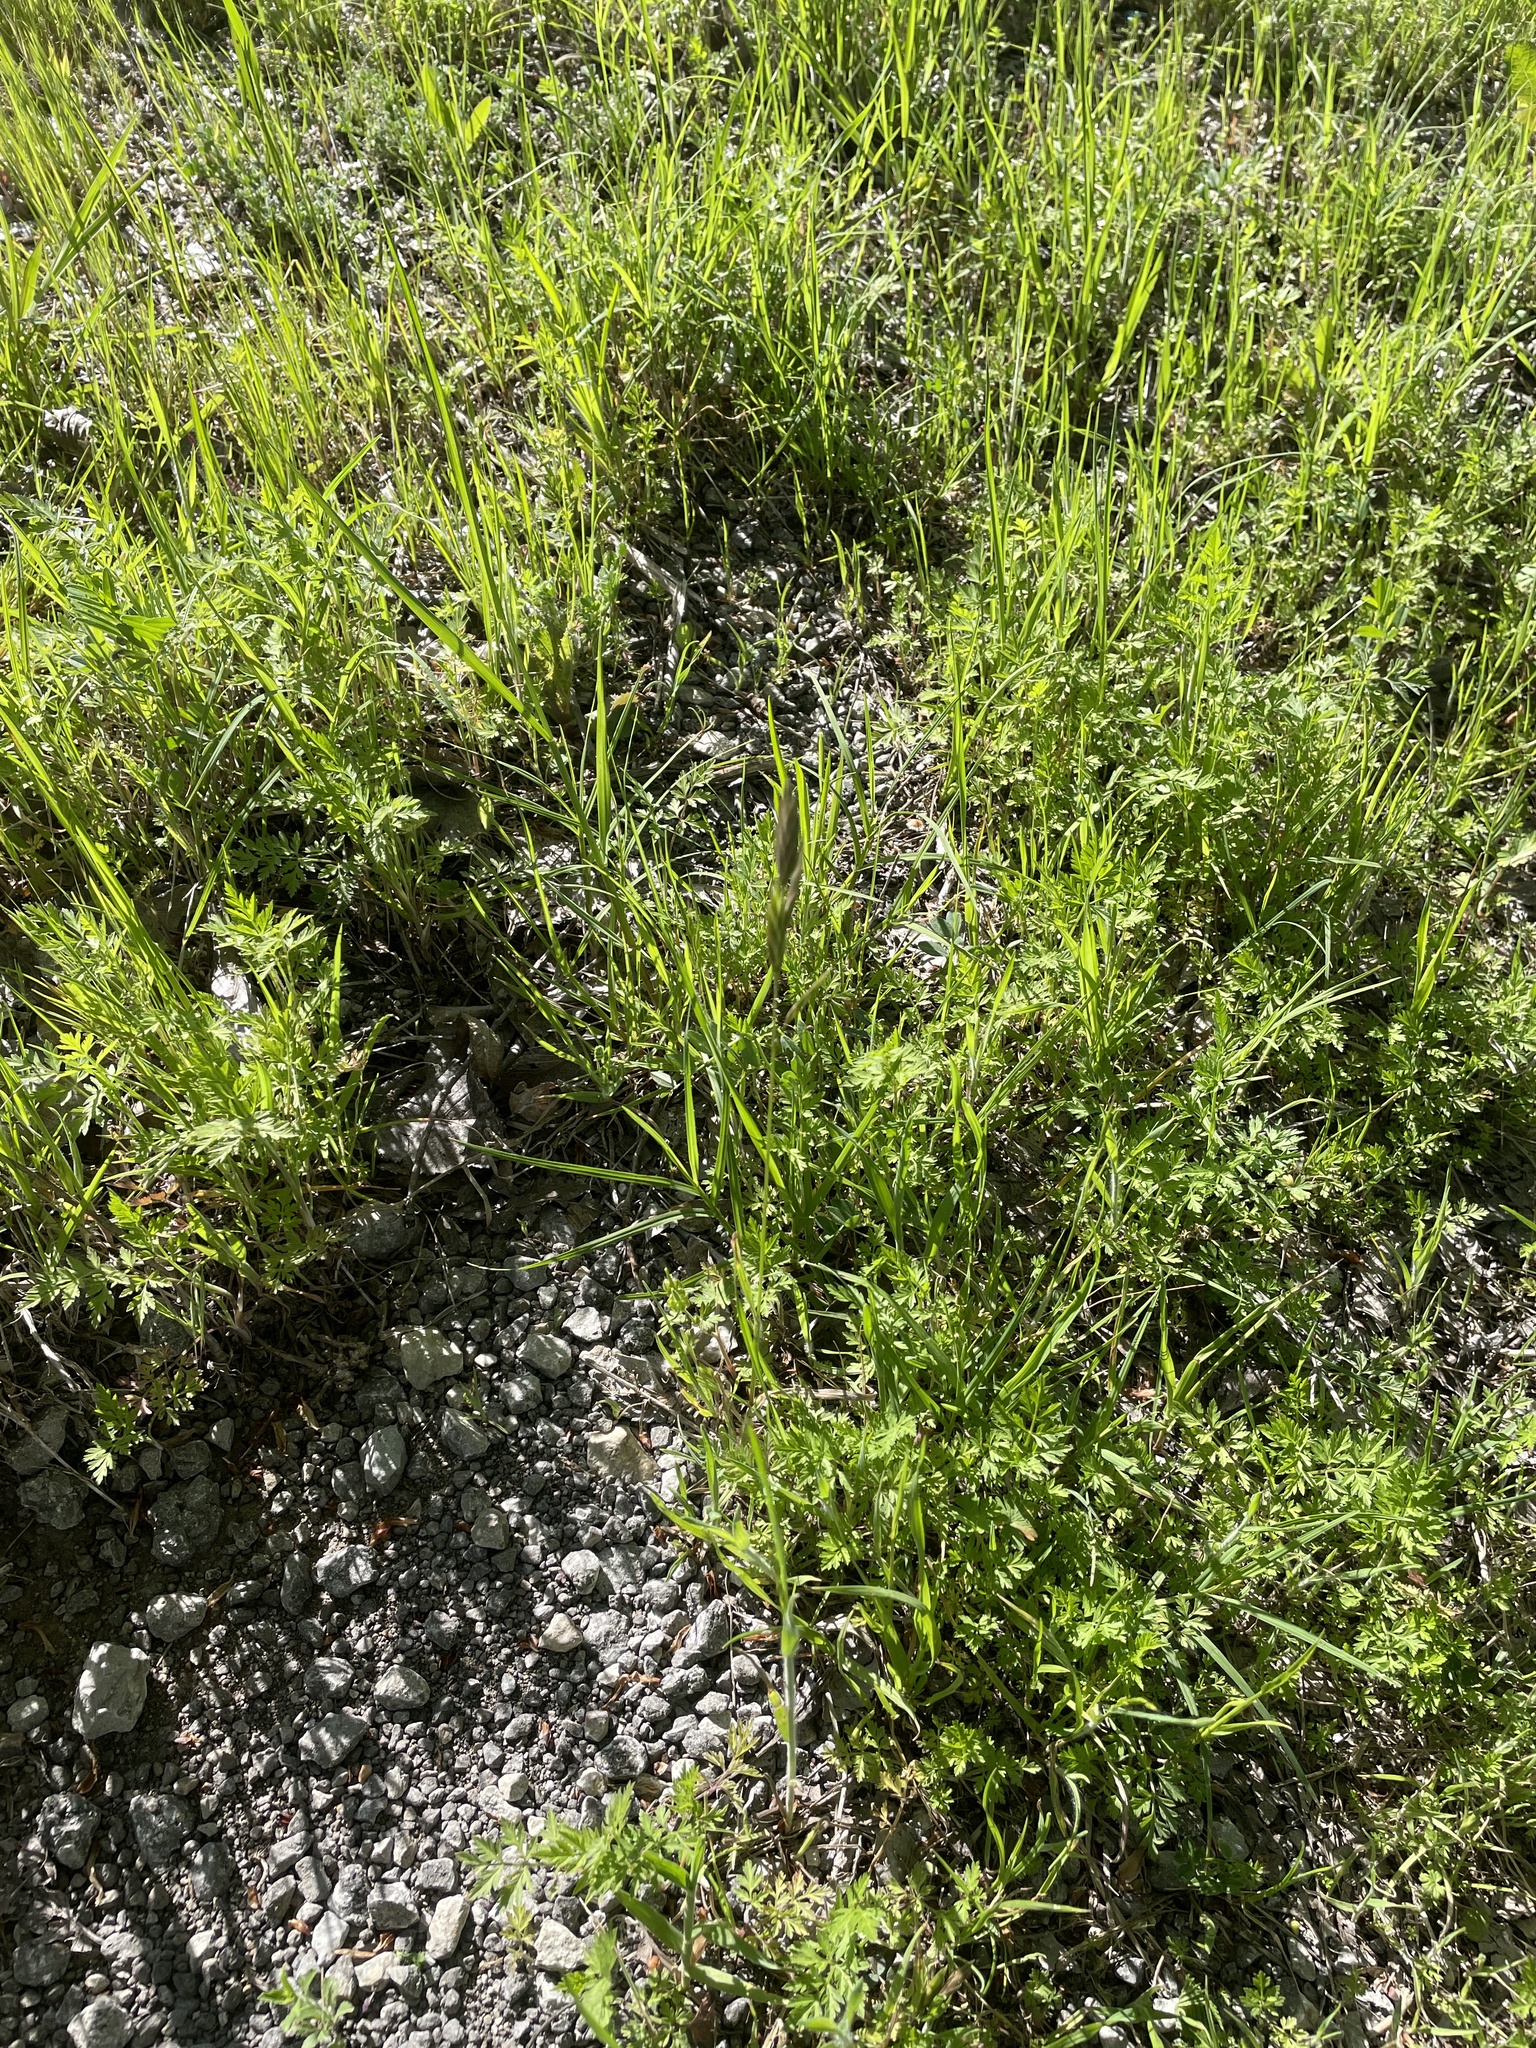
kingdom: Plantae
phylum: Tracheophyta
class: Liliopsida
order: Poales
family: Poaceae
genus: Bromus
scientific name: Bromus catharticus
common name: Rescuegrass
